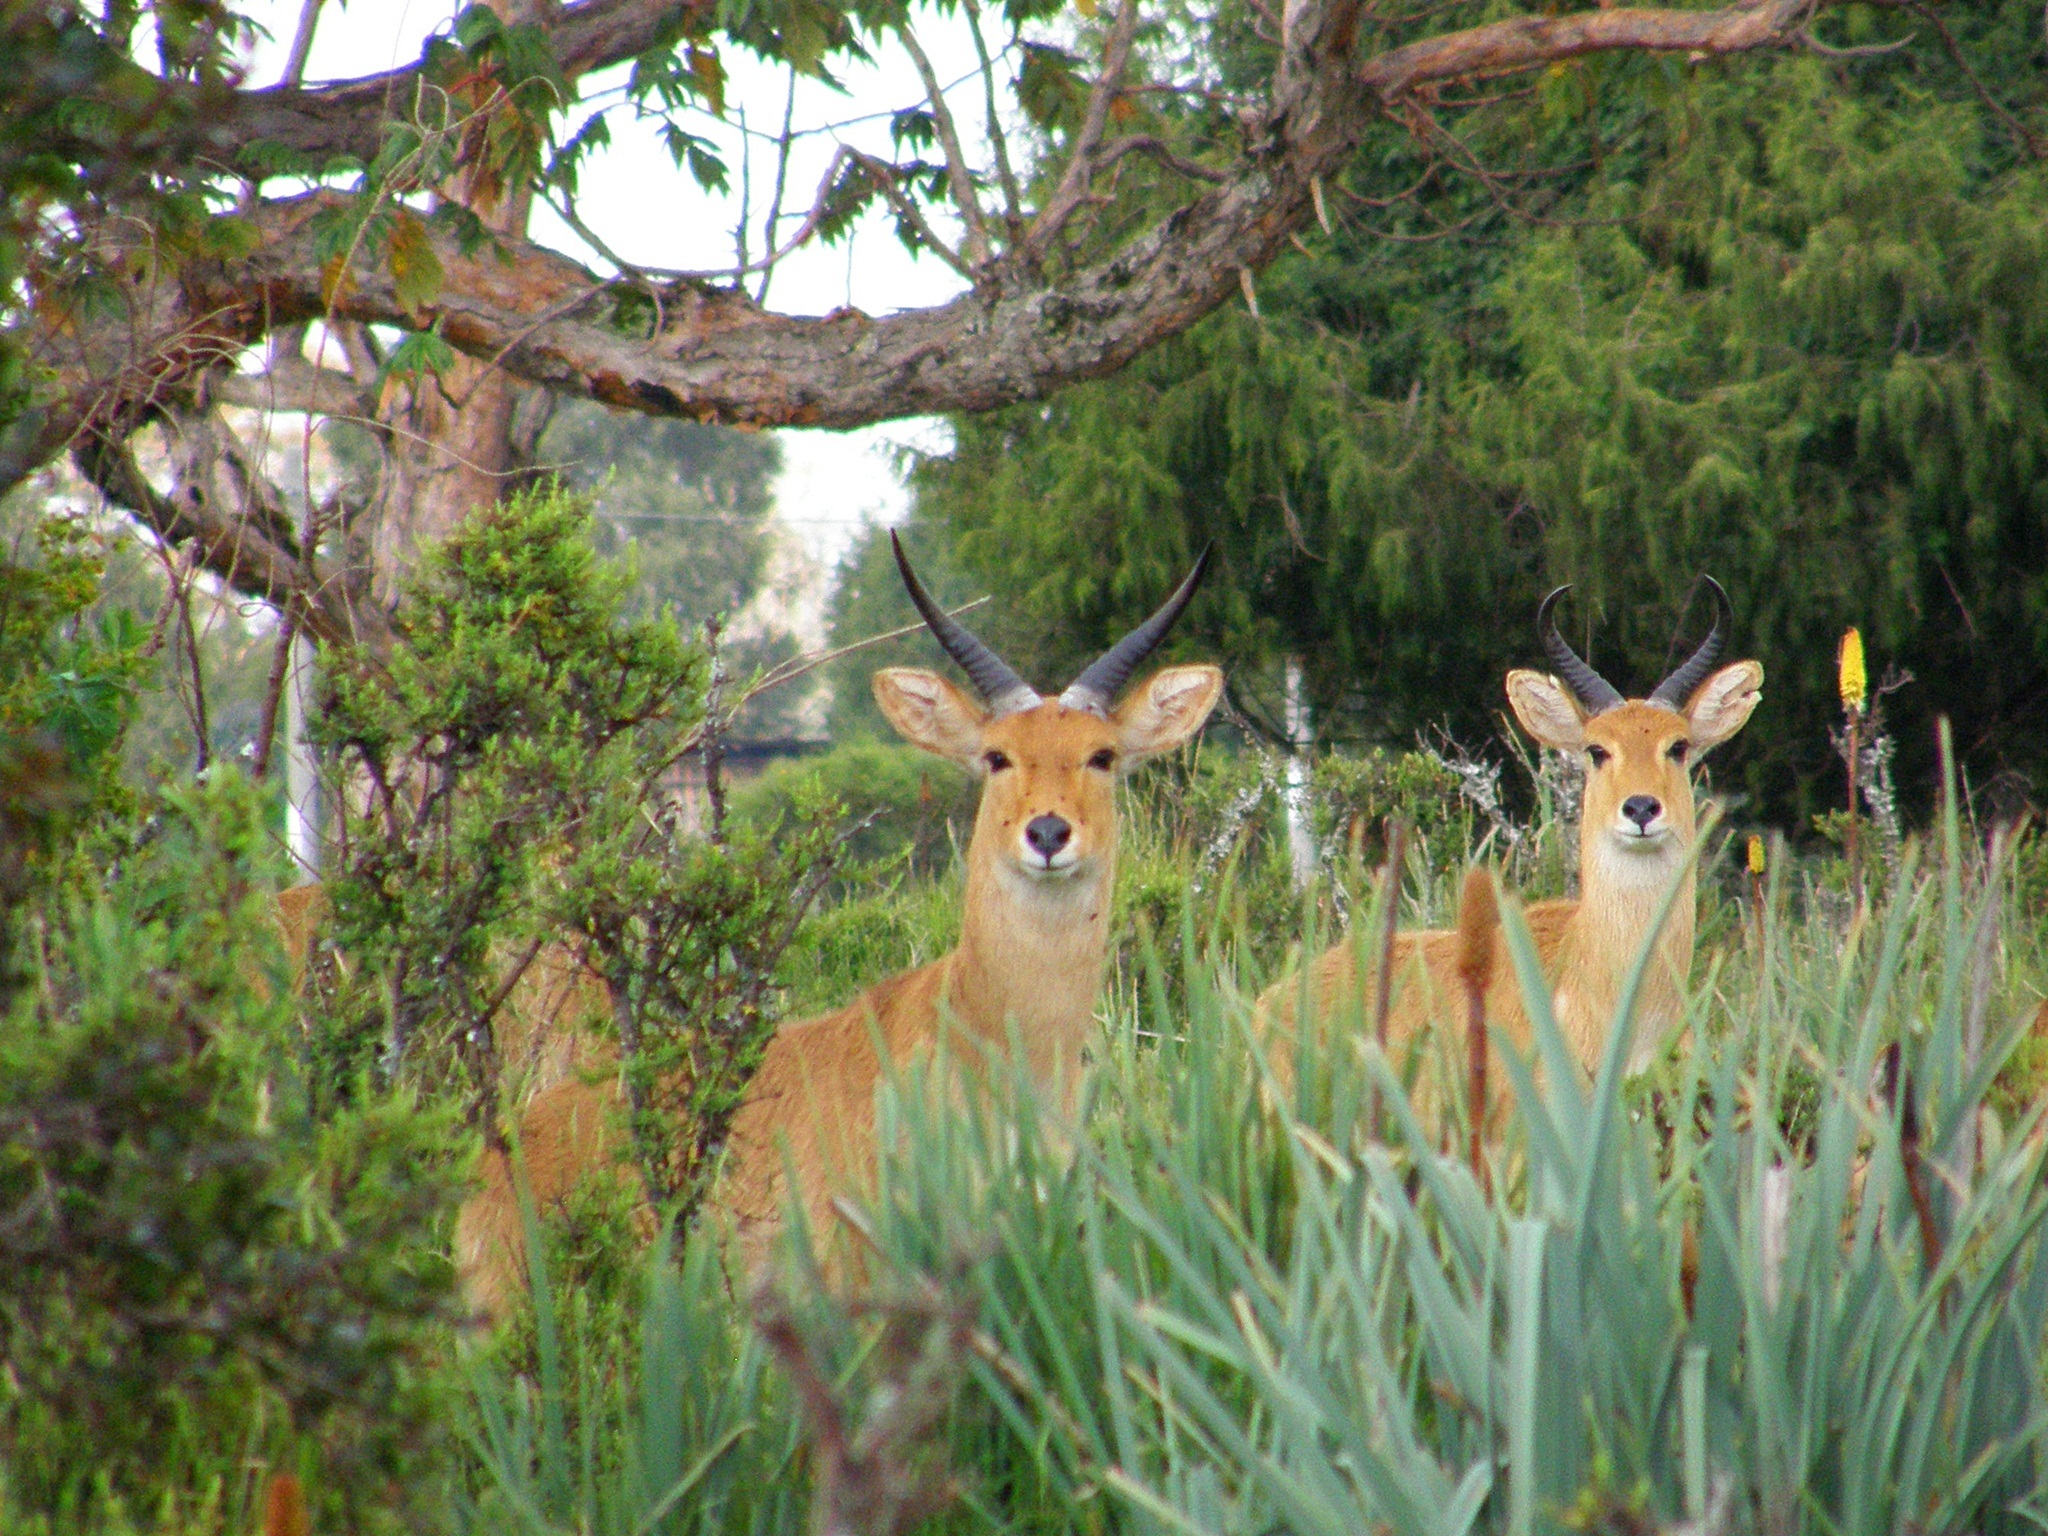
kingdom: Animalia
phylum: Chordata
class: Mammalia
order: Artiodactyla
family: Bovidae
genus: Redunca
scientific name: Redunca redunca
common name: Common reedbuck
